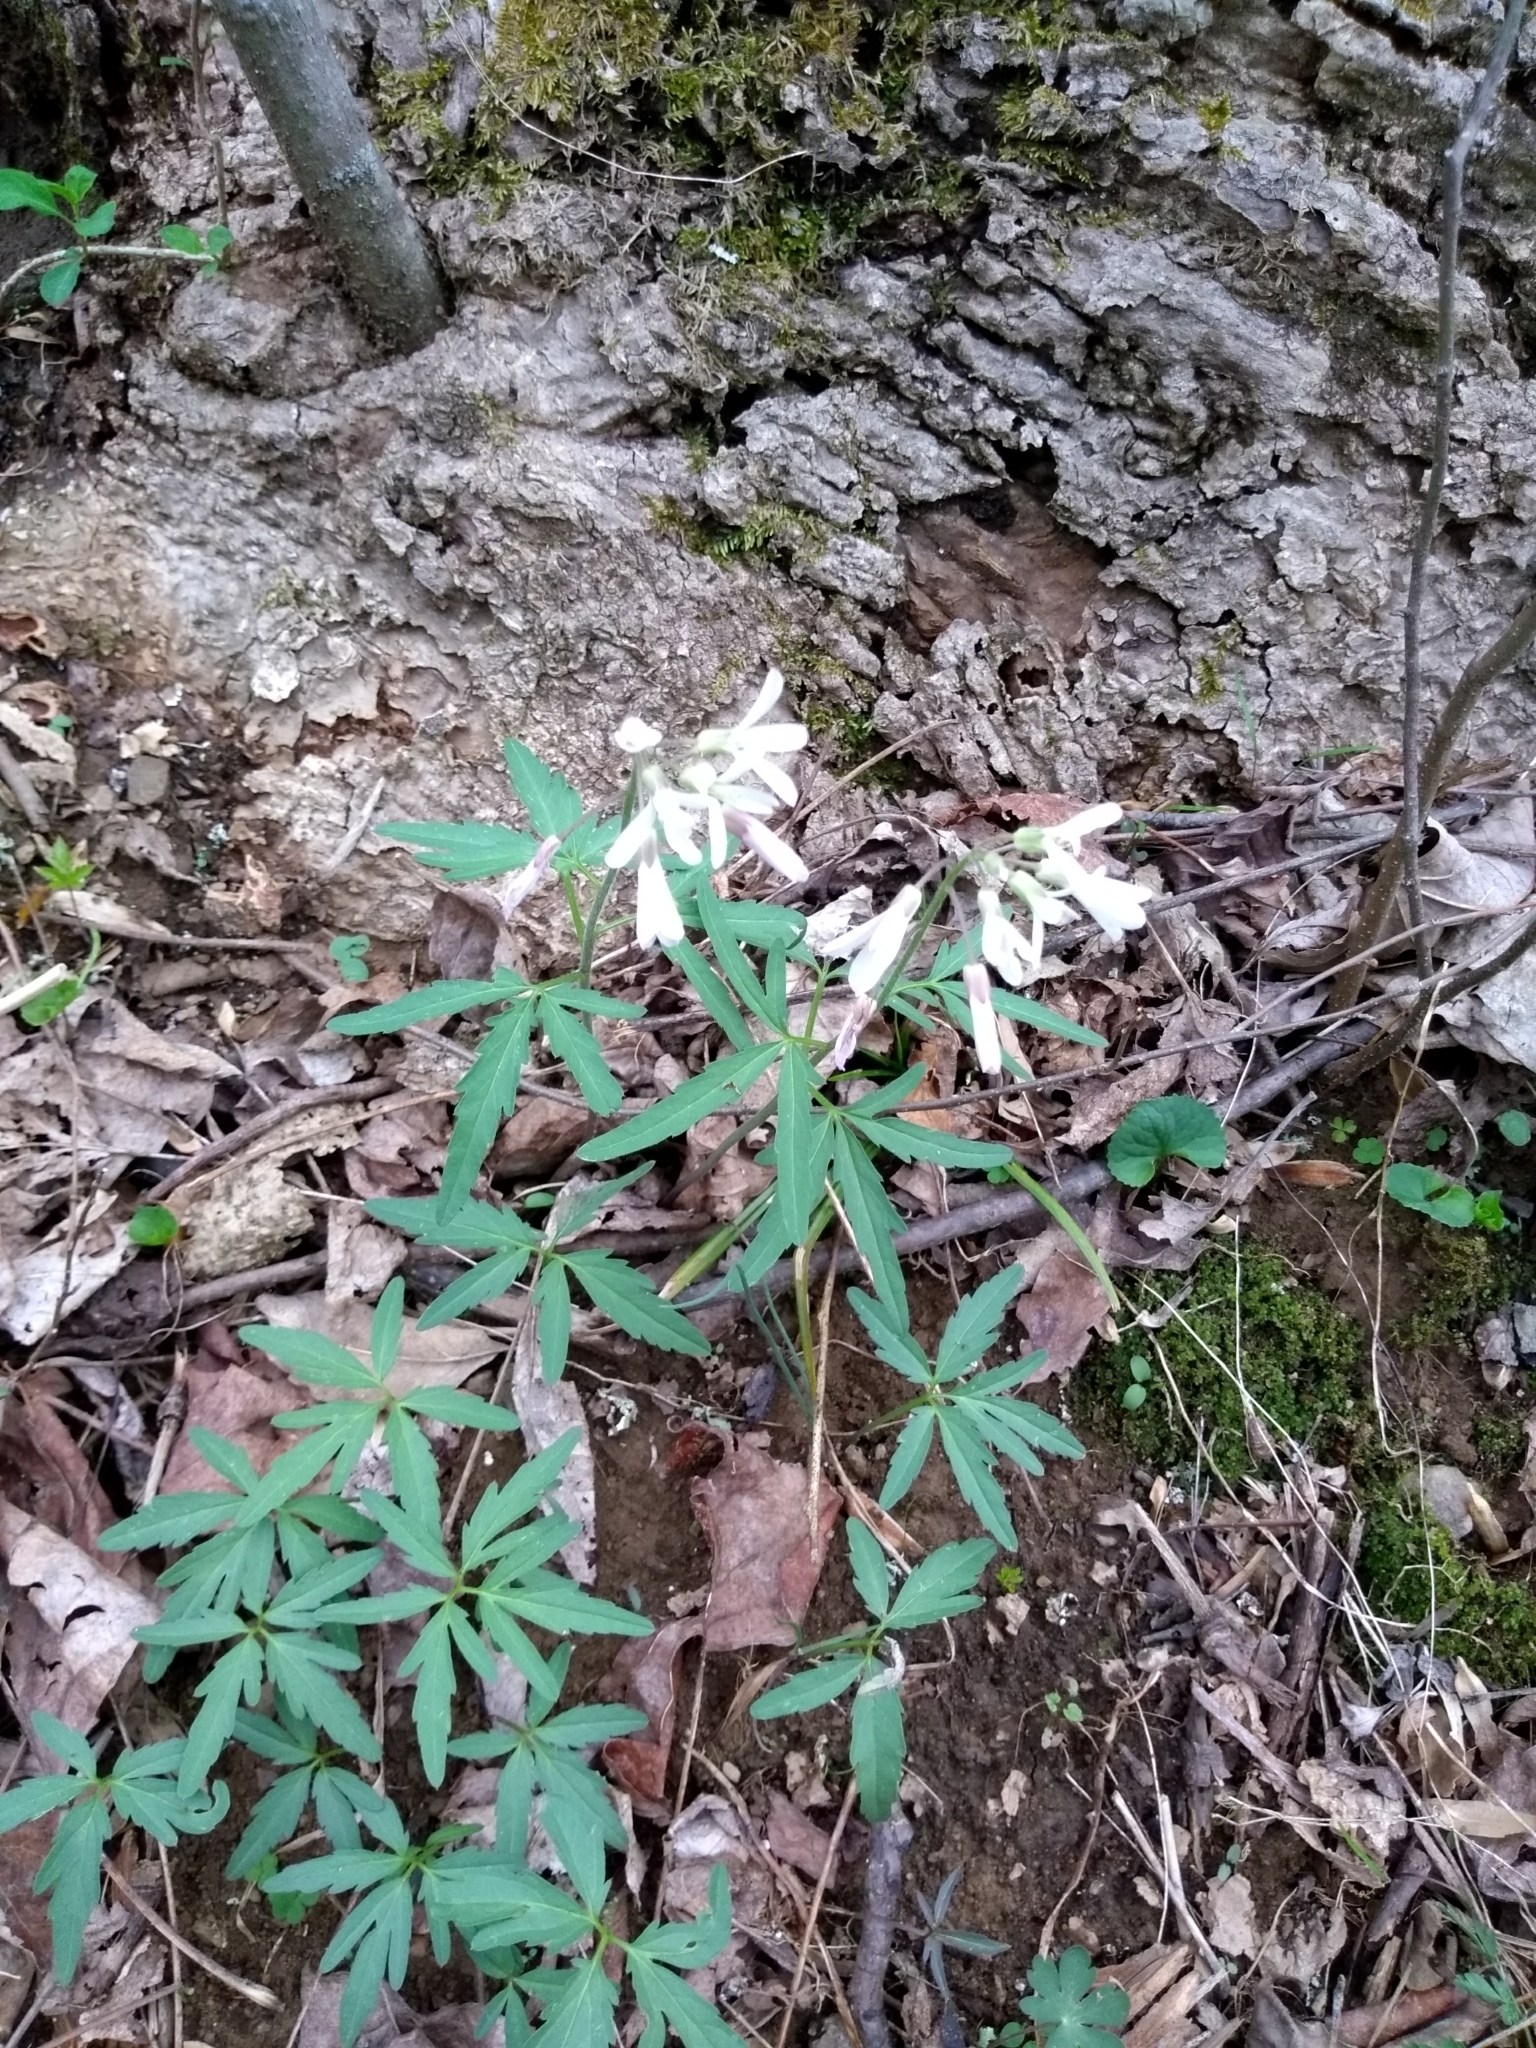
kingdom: Plantae
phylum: Tracheophyta
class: Magnoliopsida
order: Brassicales
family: Brassicaceae
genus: Cardamine
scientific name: Cardamine concatenata
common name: Cut-leaf toothcup
